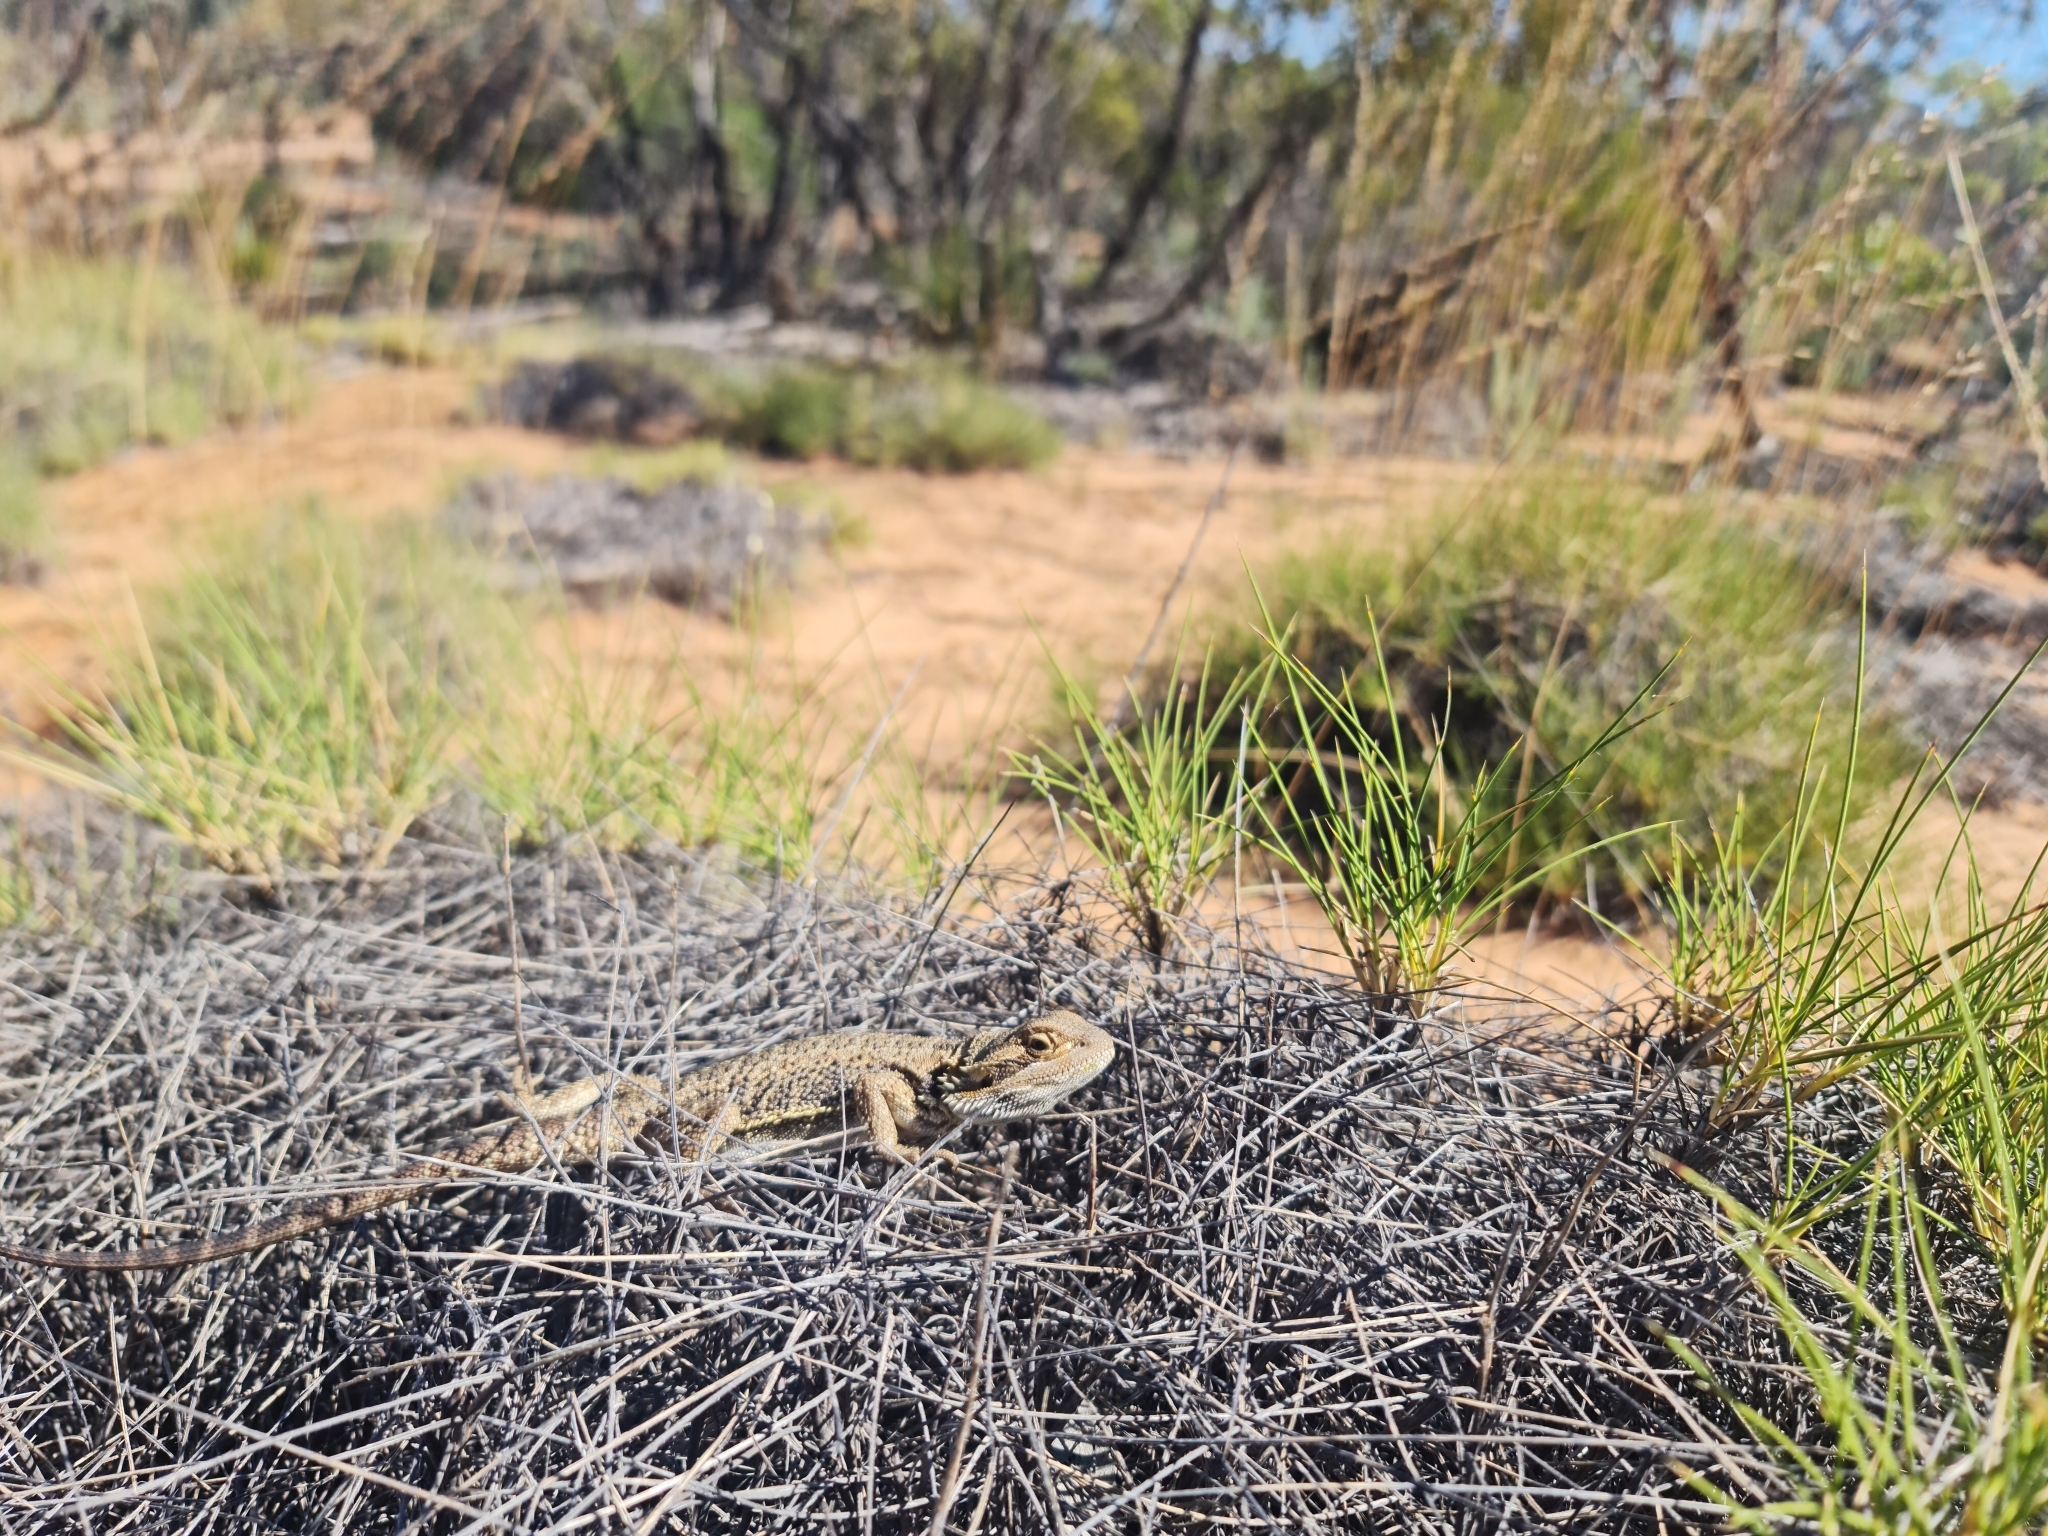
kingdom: Animalia
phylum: Chordata
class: Squamata
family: Agamidae
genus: Pogona
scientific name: Pogona vitticeps
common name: Central bearded dragon
